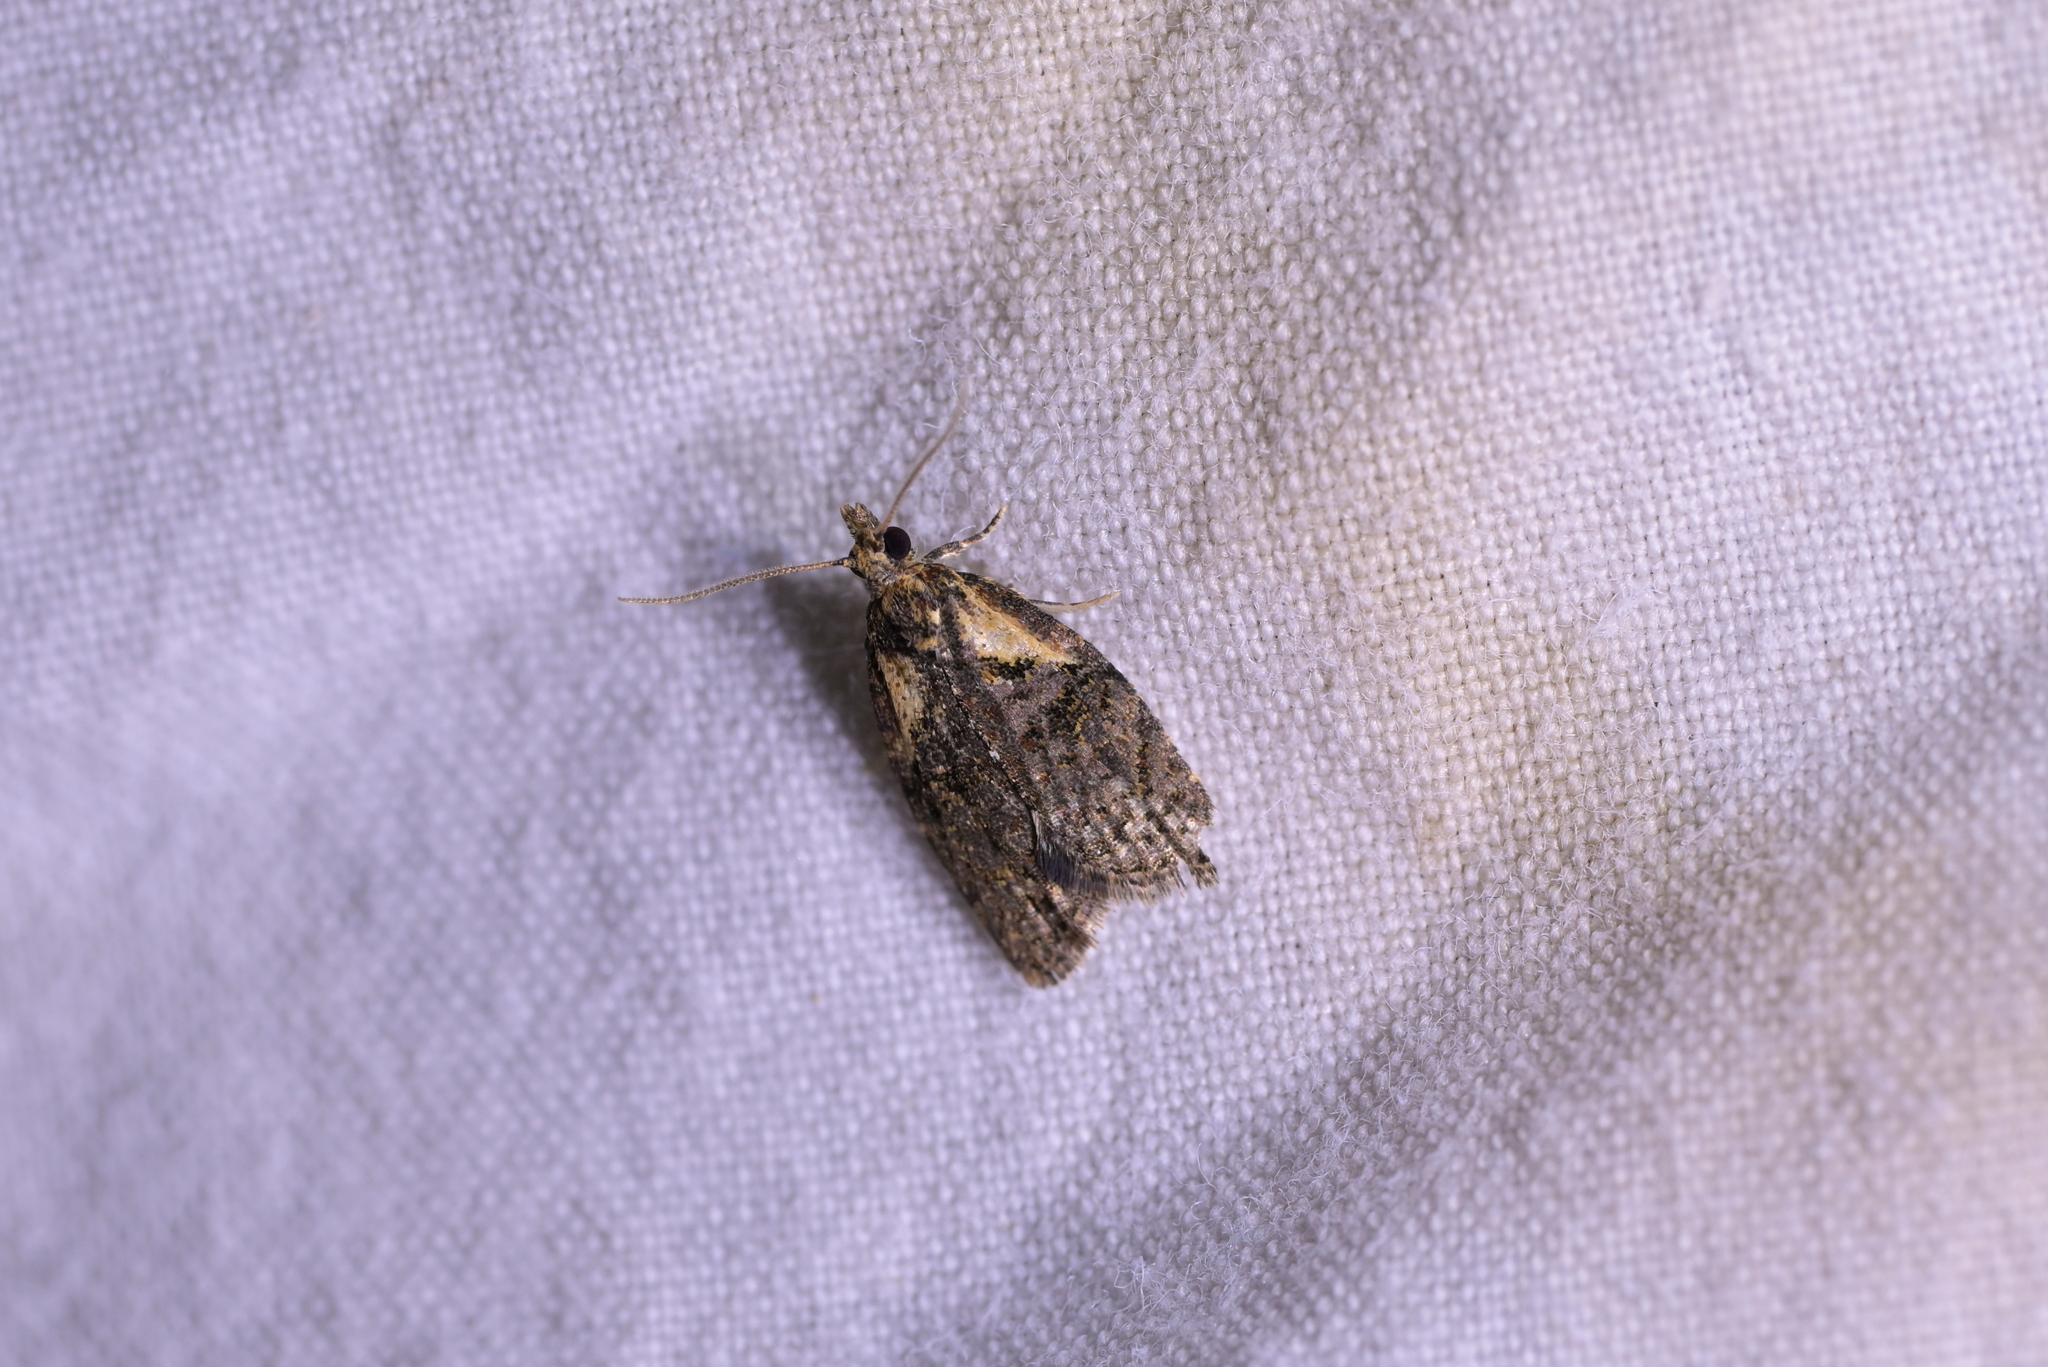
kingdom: Animalia
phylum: Arthropoda
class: Insecta
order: Lepidoptera
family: Tortricidae
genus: Capua
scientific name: Capua intractana
